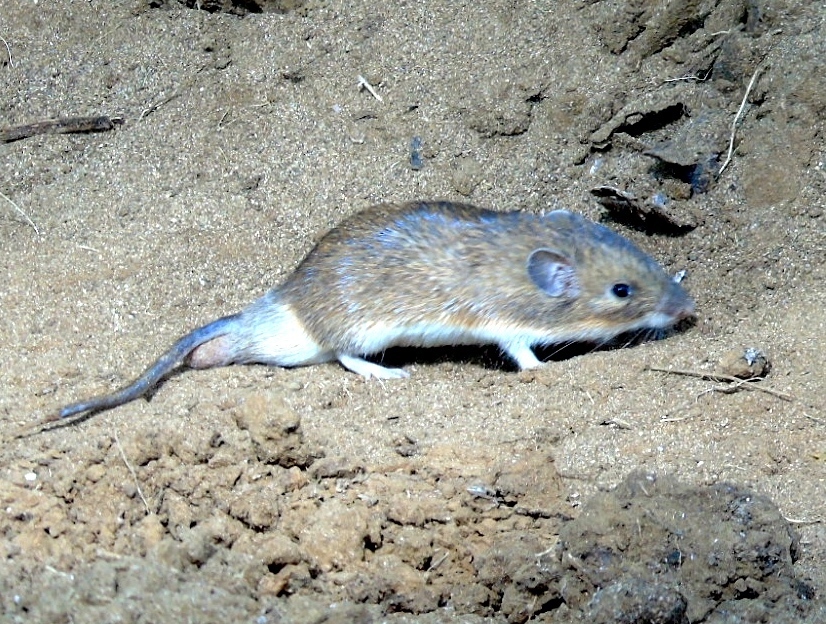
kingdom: Animalia
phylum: Chordata
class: Mammalia
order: Rodentia
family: Heteromyidae
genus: Liomys
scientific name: Liomys pictus
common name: Painted spiny pocket mouse
